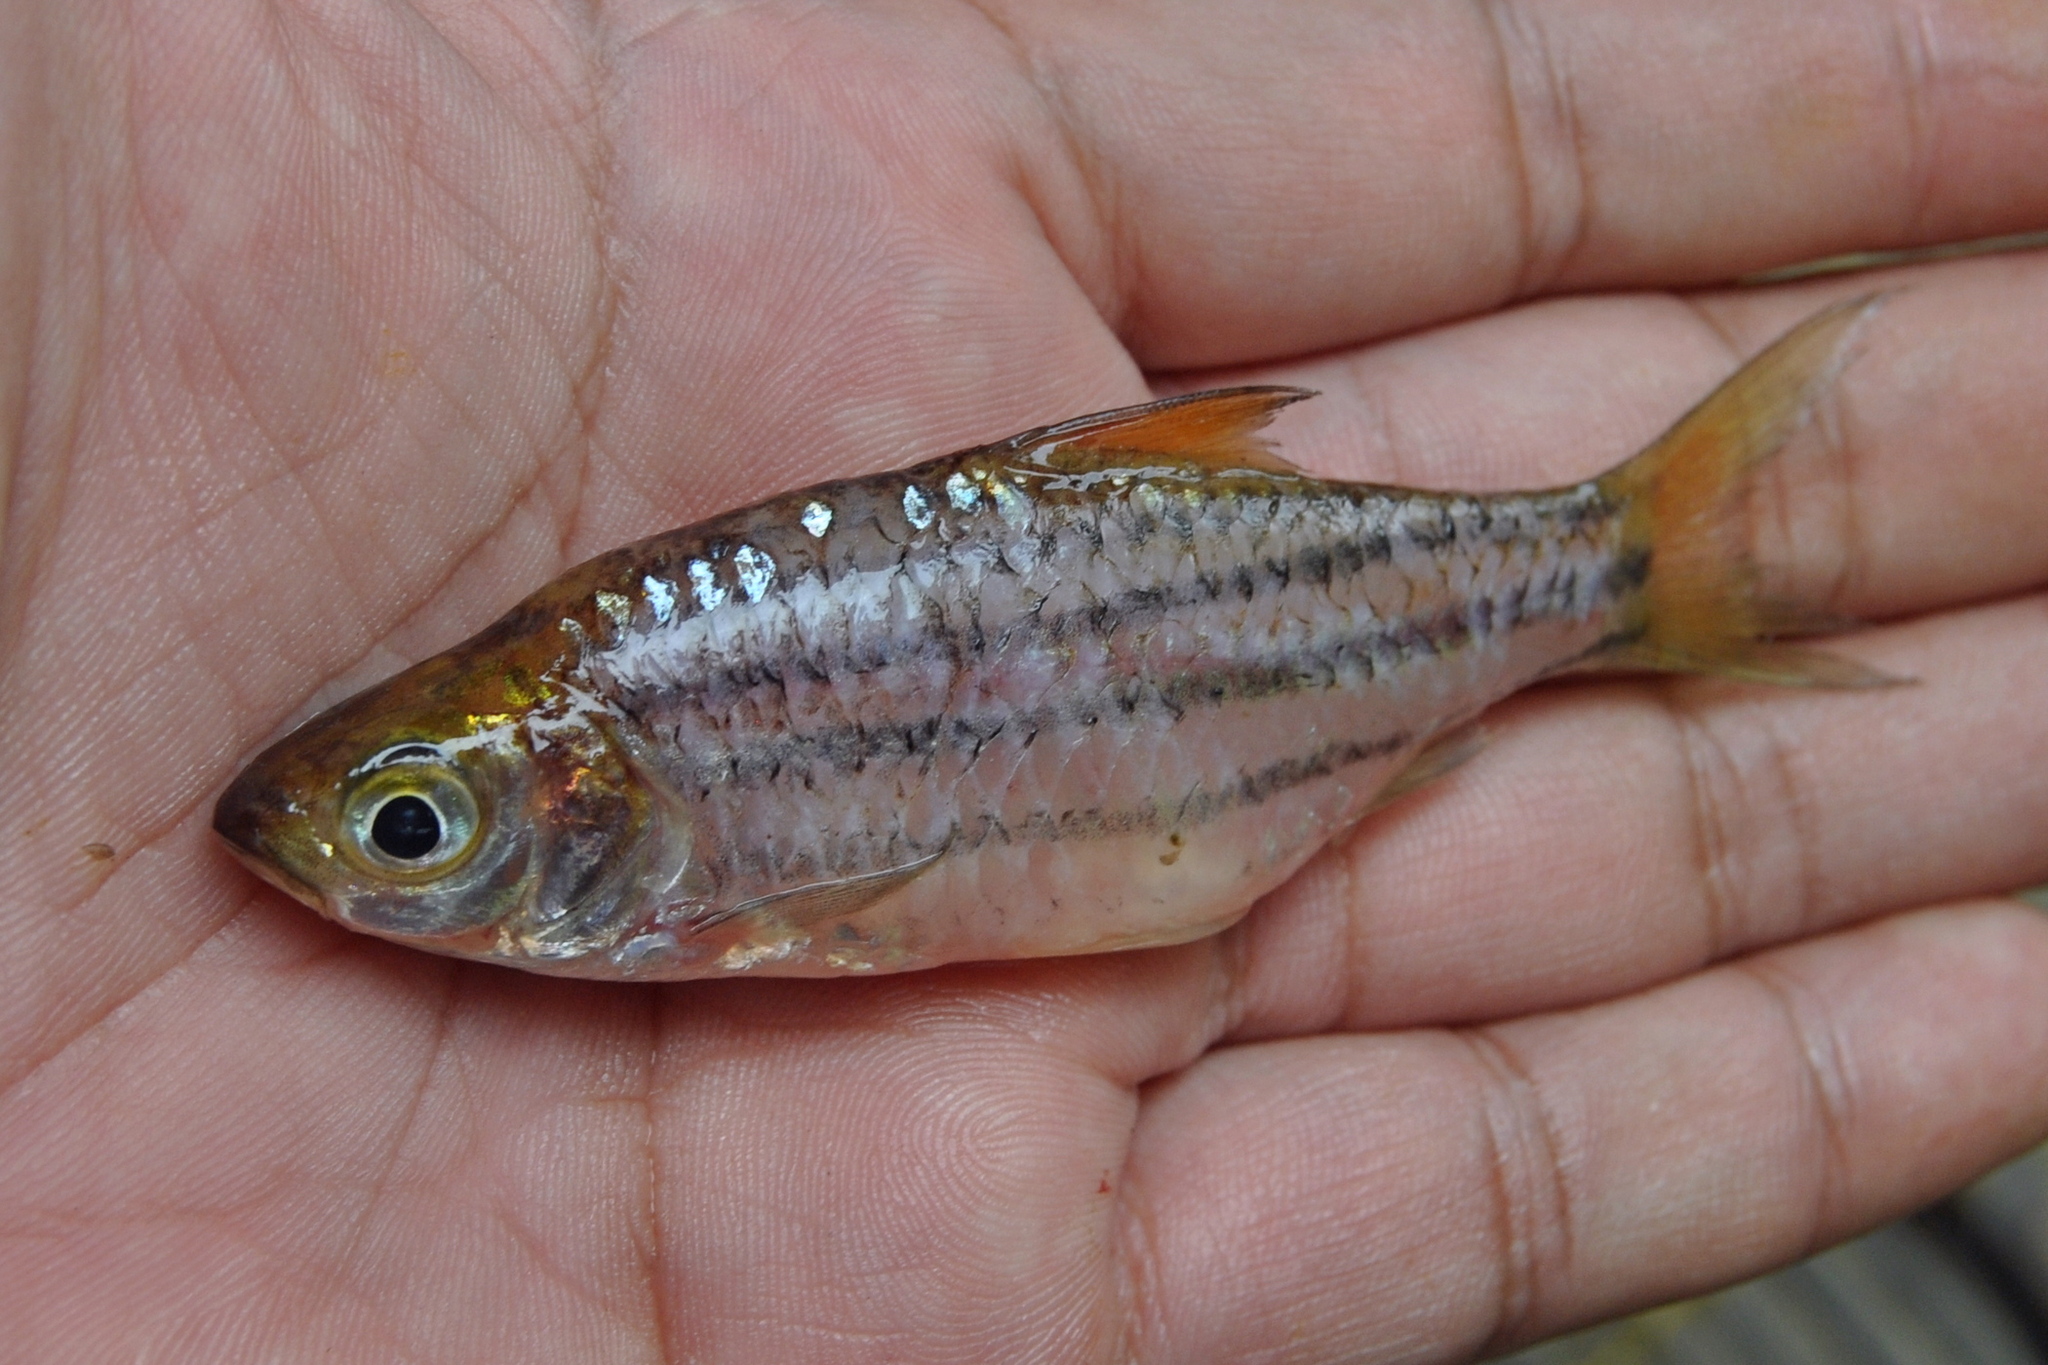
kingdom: Animalia
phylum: Chordata
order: Cypriniformes
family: Cyprinidae
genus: Desmopuntius
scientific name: Desmopuntius gemellus
